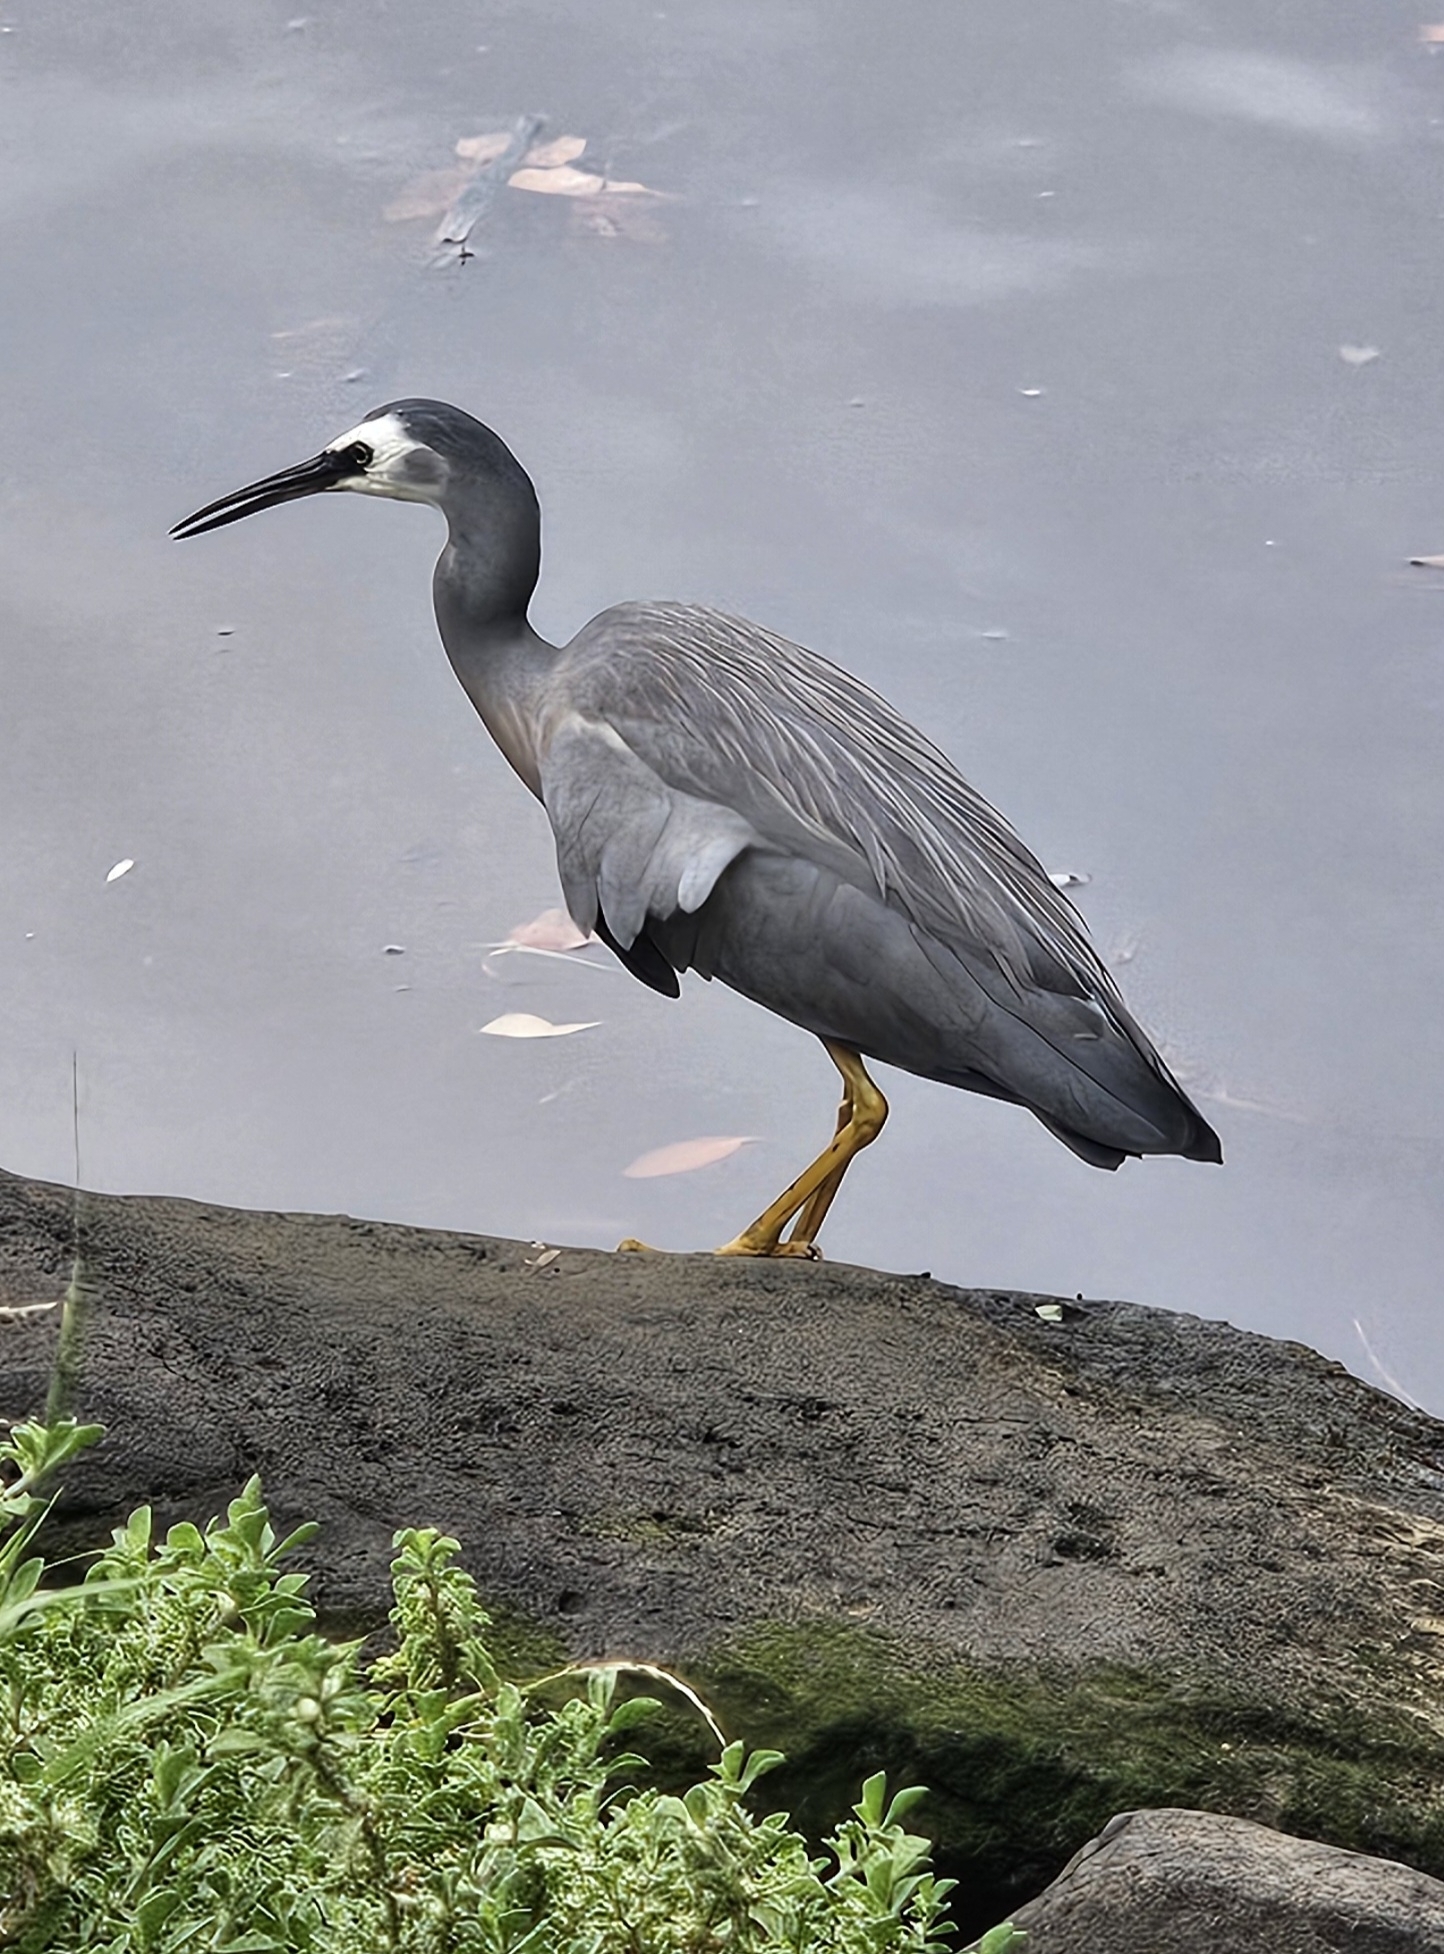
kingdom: Animalia
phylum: Chordata
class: Aves
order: Pelecaniformes
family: Ardeidae
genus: Egretta
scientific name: Egretta novaehollandiae
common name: White-faced heron
